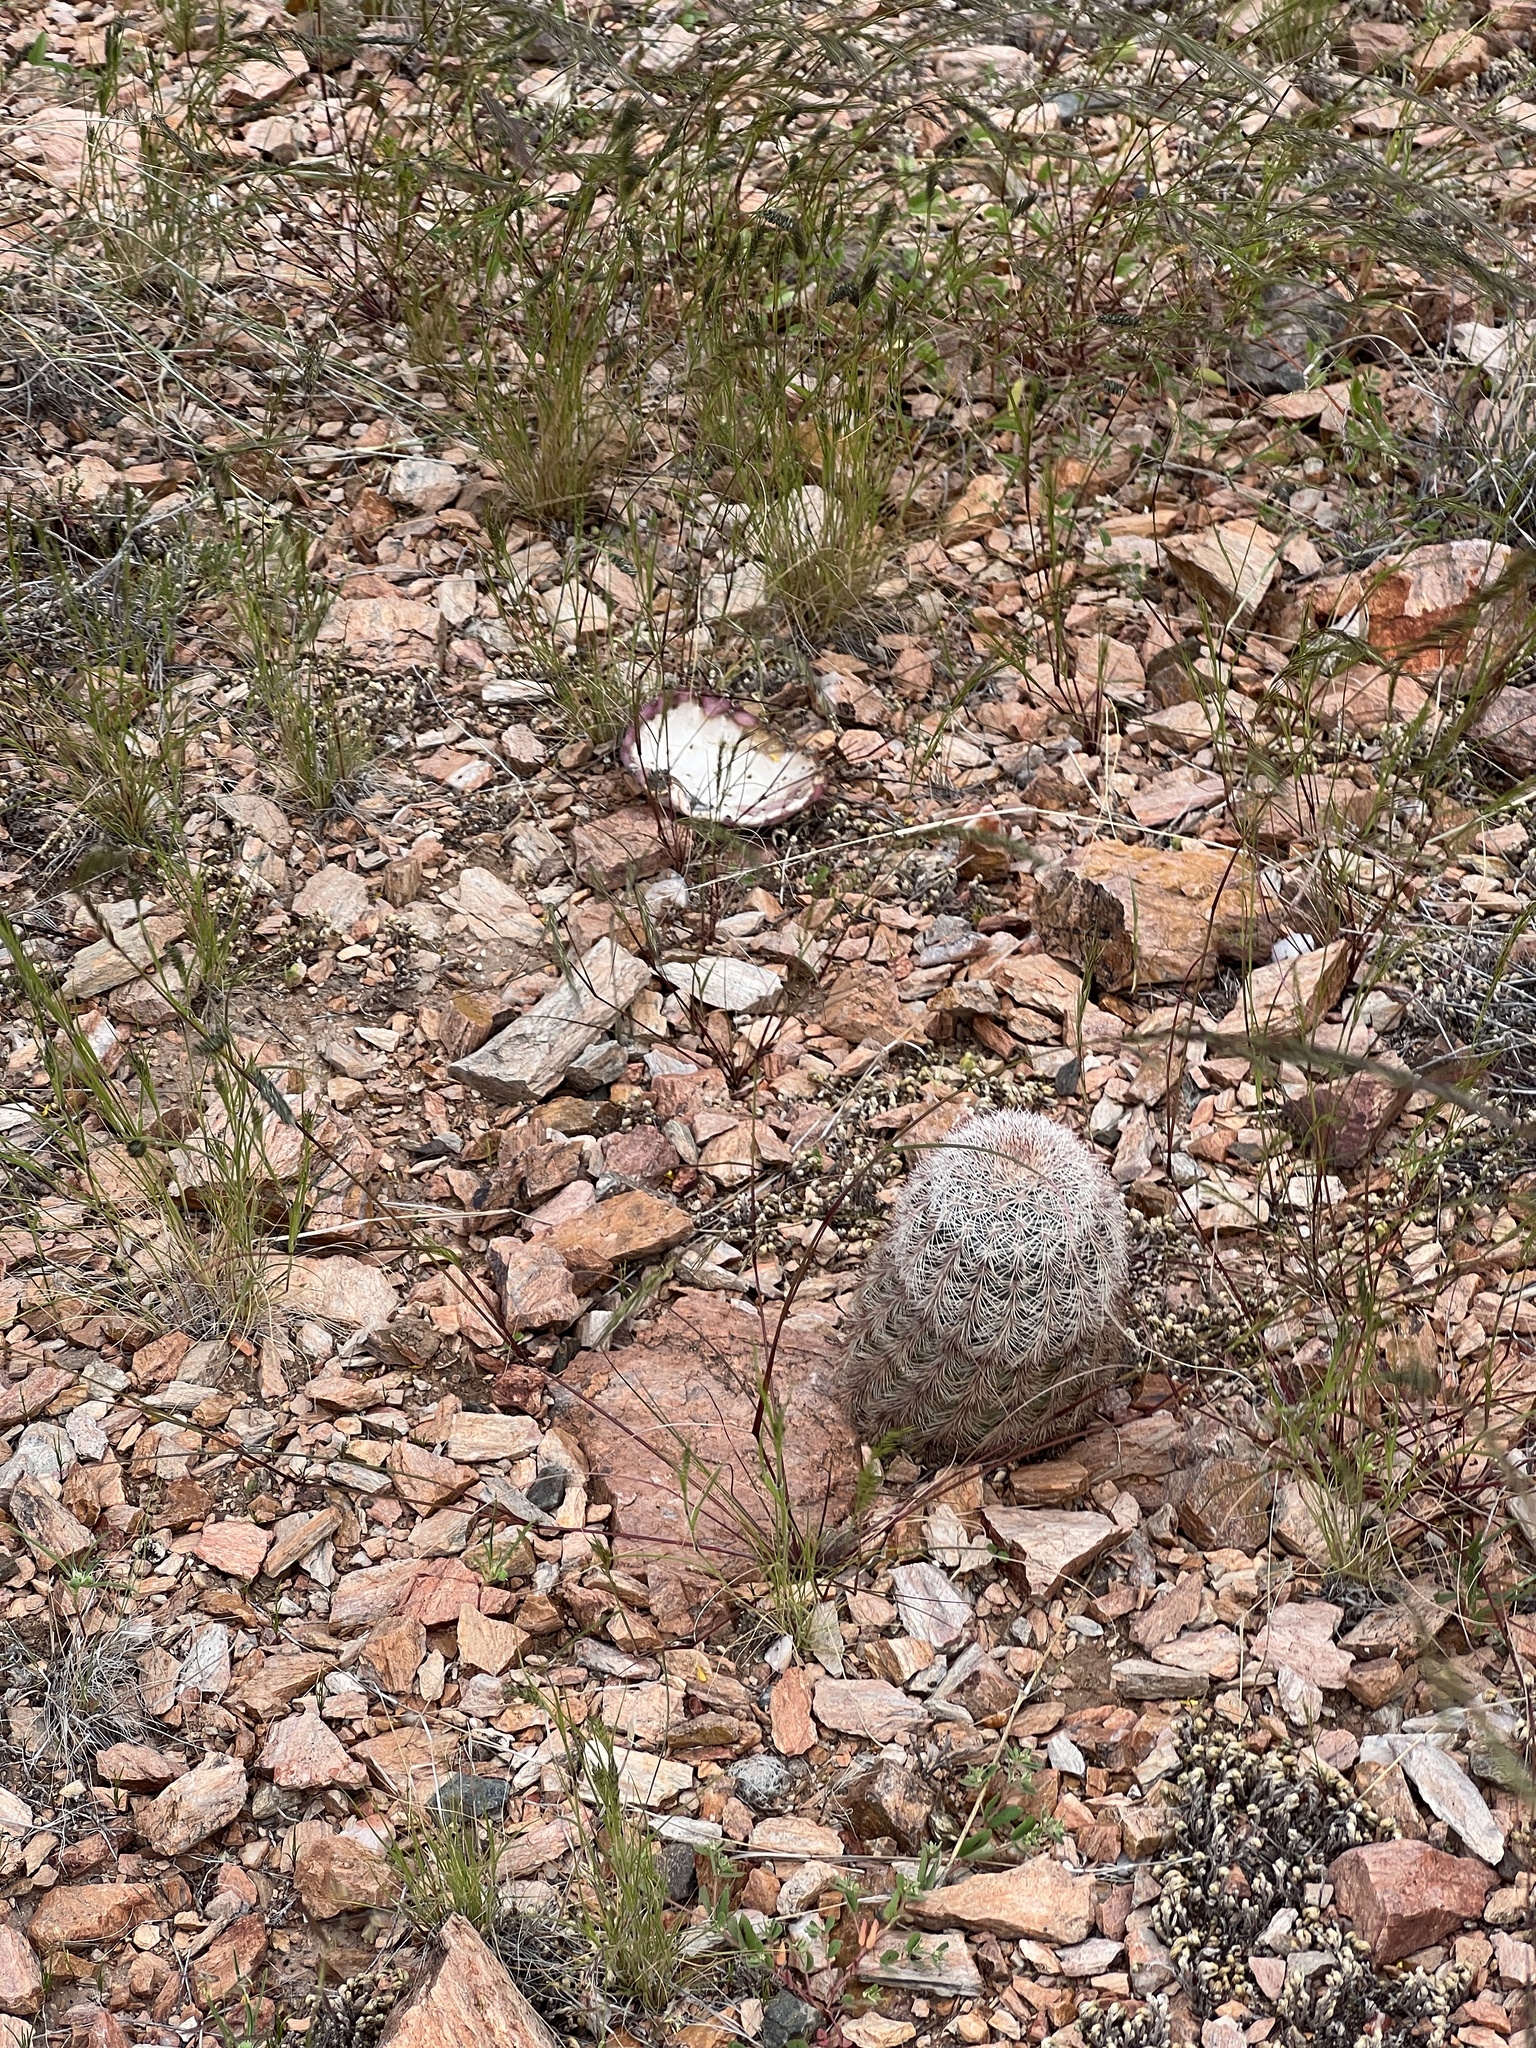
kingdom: Plantae
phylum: Tracheophyta
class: Magnoliopsida
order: Caryophyllales
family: Cactaceae
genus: Echinocereus
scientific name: Echinocereus dasyacanthus
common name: Spiny hedgehog cactus
